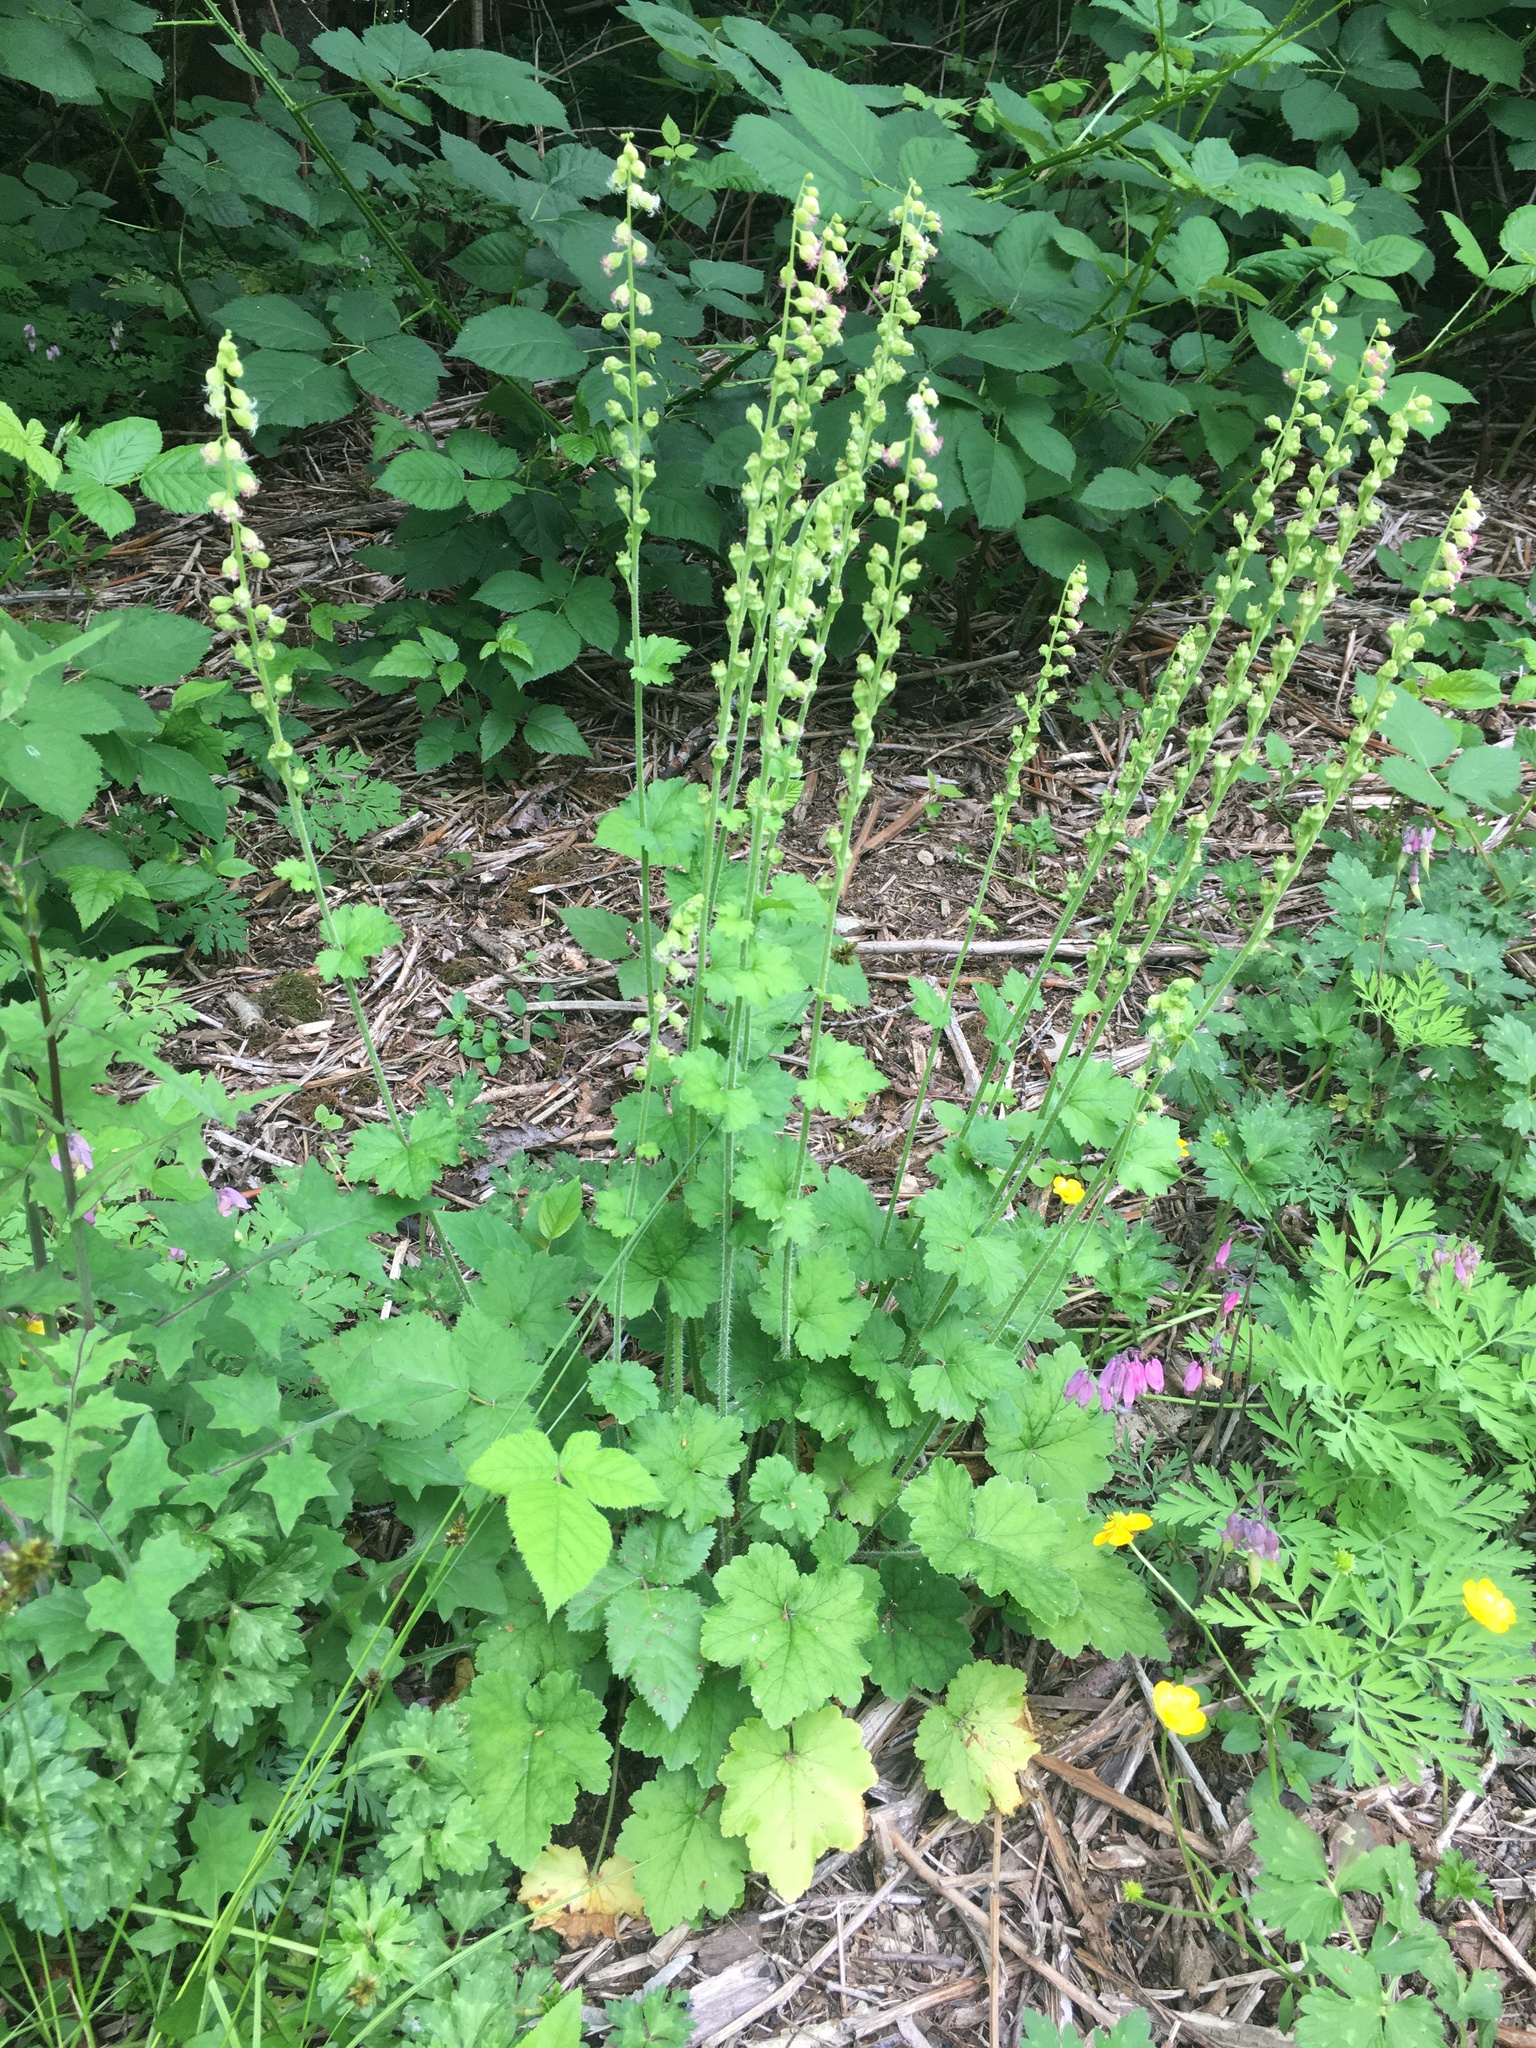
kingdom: Plantae
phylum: Tracheophyta
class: Magnoliopsida
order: Saxifragales
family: Saxifragaceae
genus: Tellima
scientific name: Tellima grandiflora
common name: Fringecups
